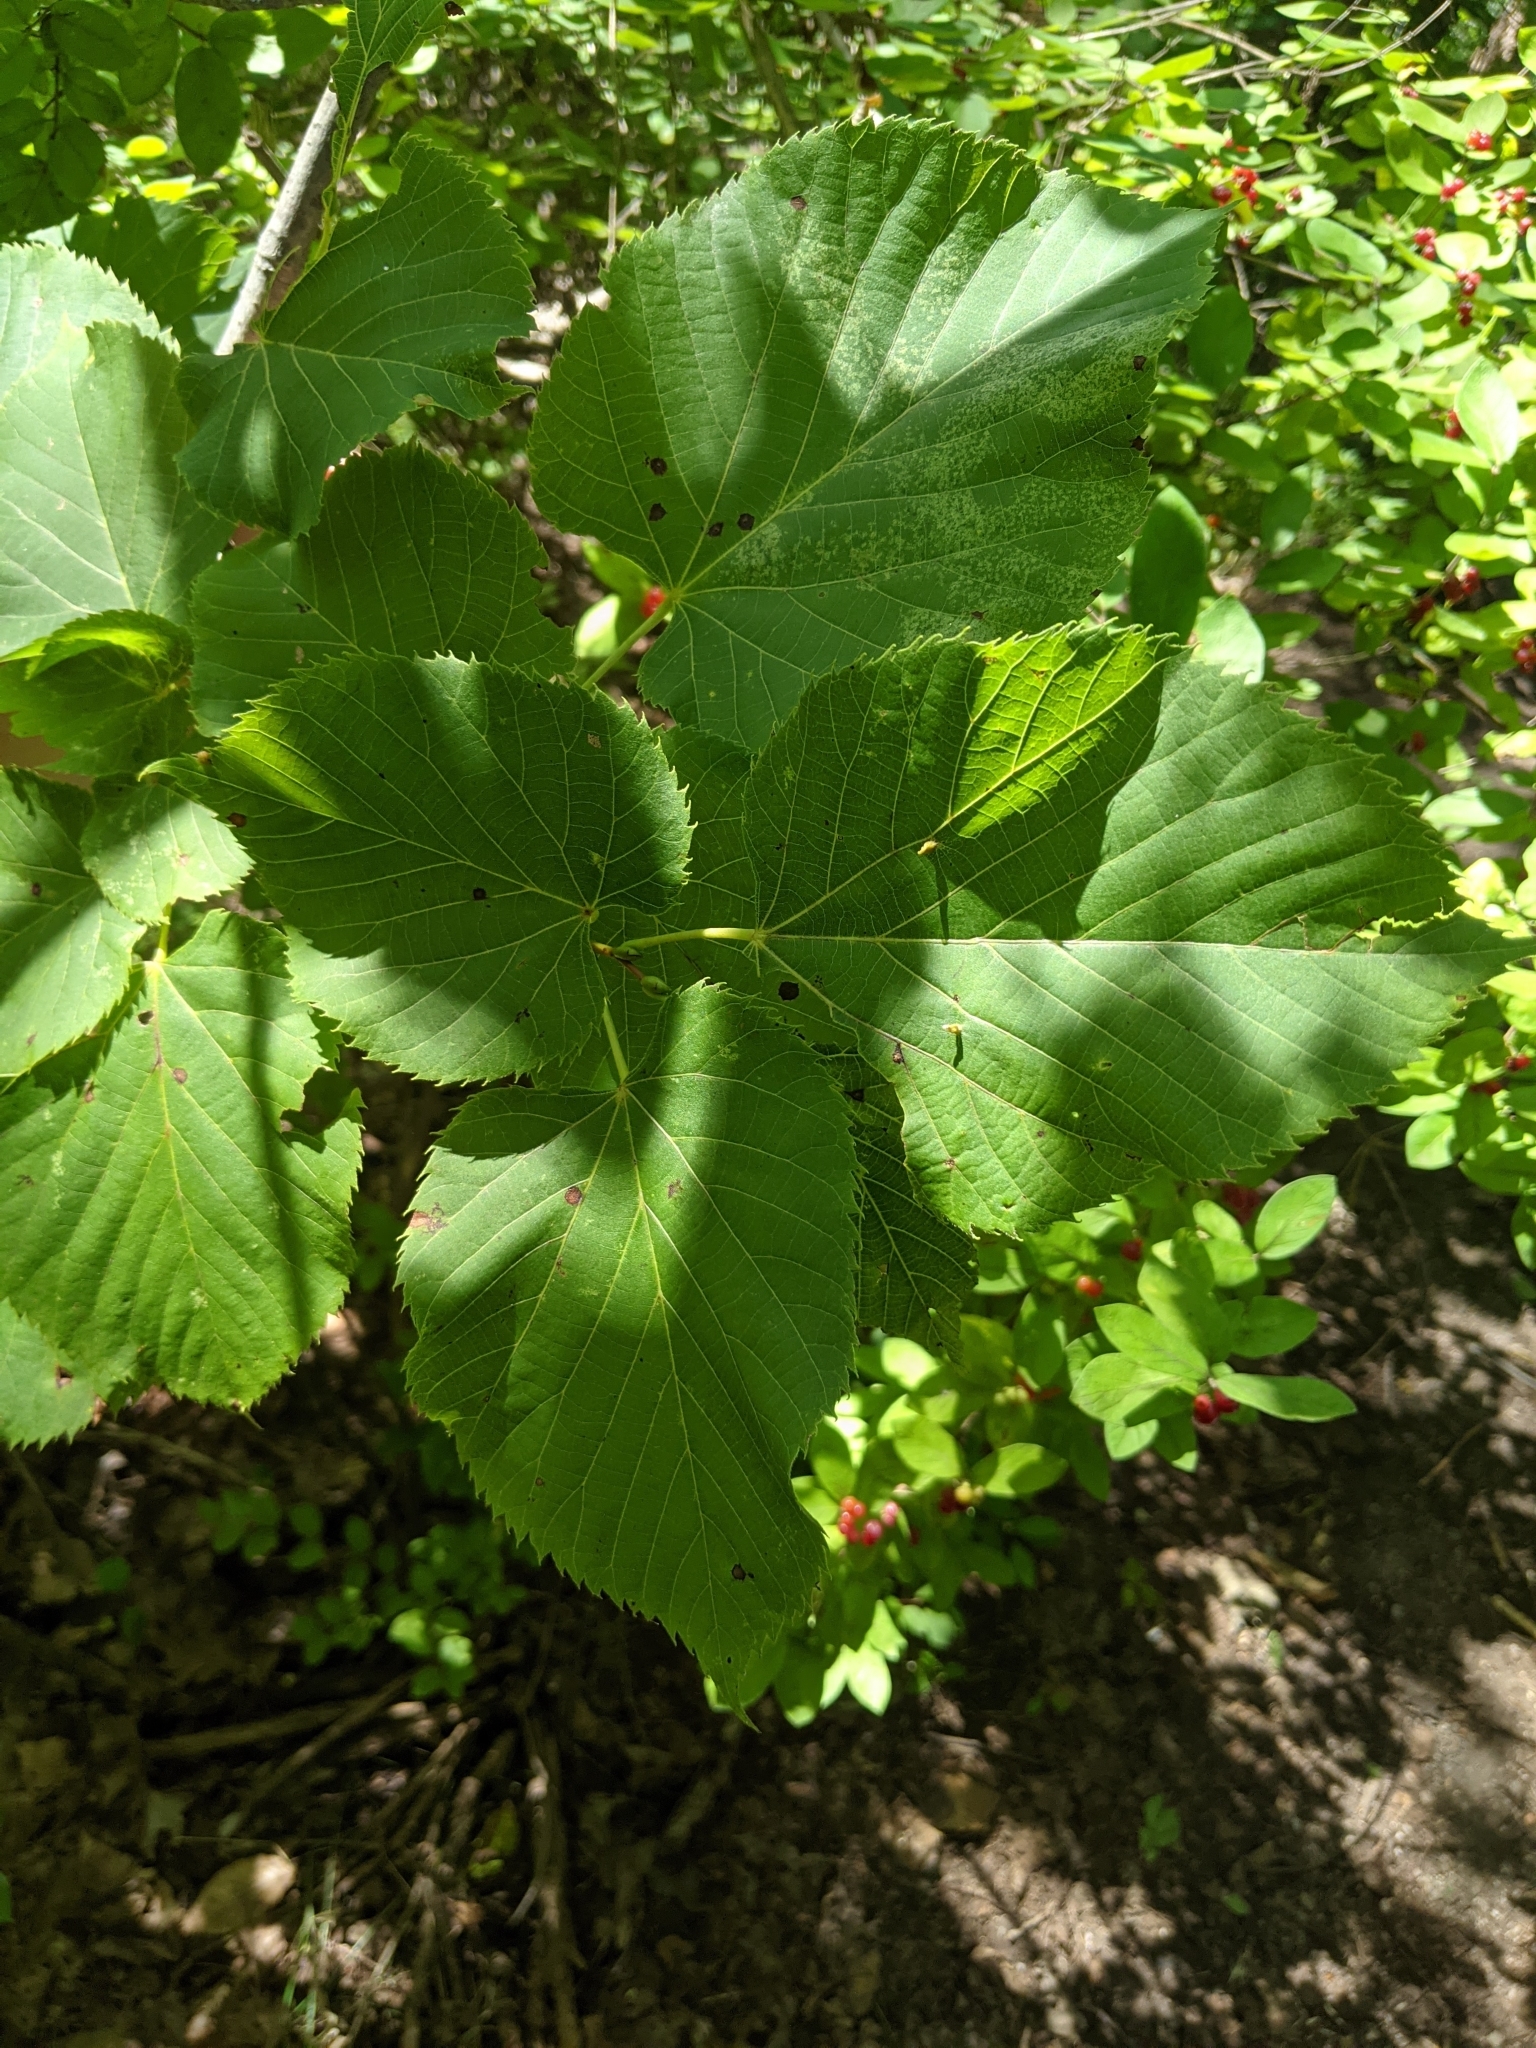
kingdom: Plantae
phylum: Tracheophyta
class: Magnoliopsida
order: Malvales
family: Malvaceae
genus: Tilia
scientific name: Tilia americana
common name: Basswood
